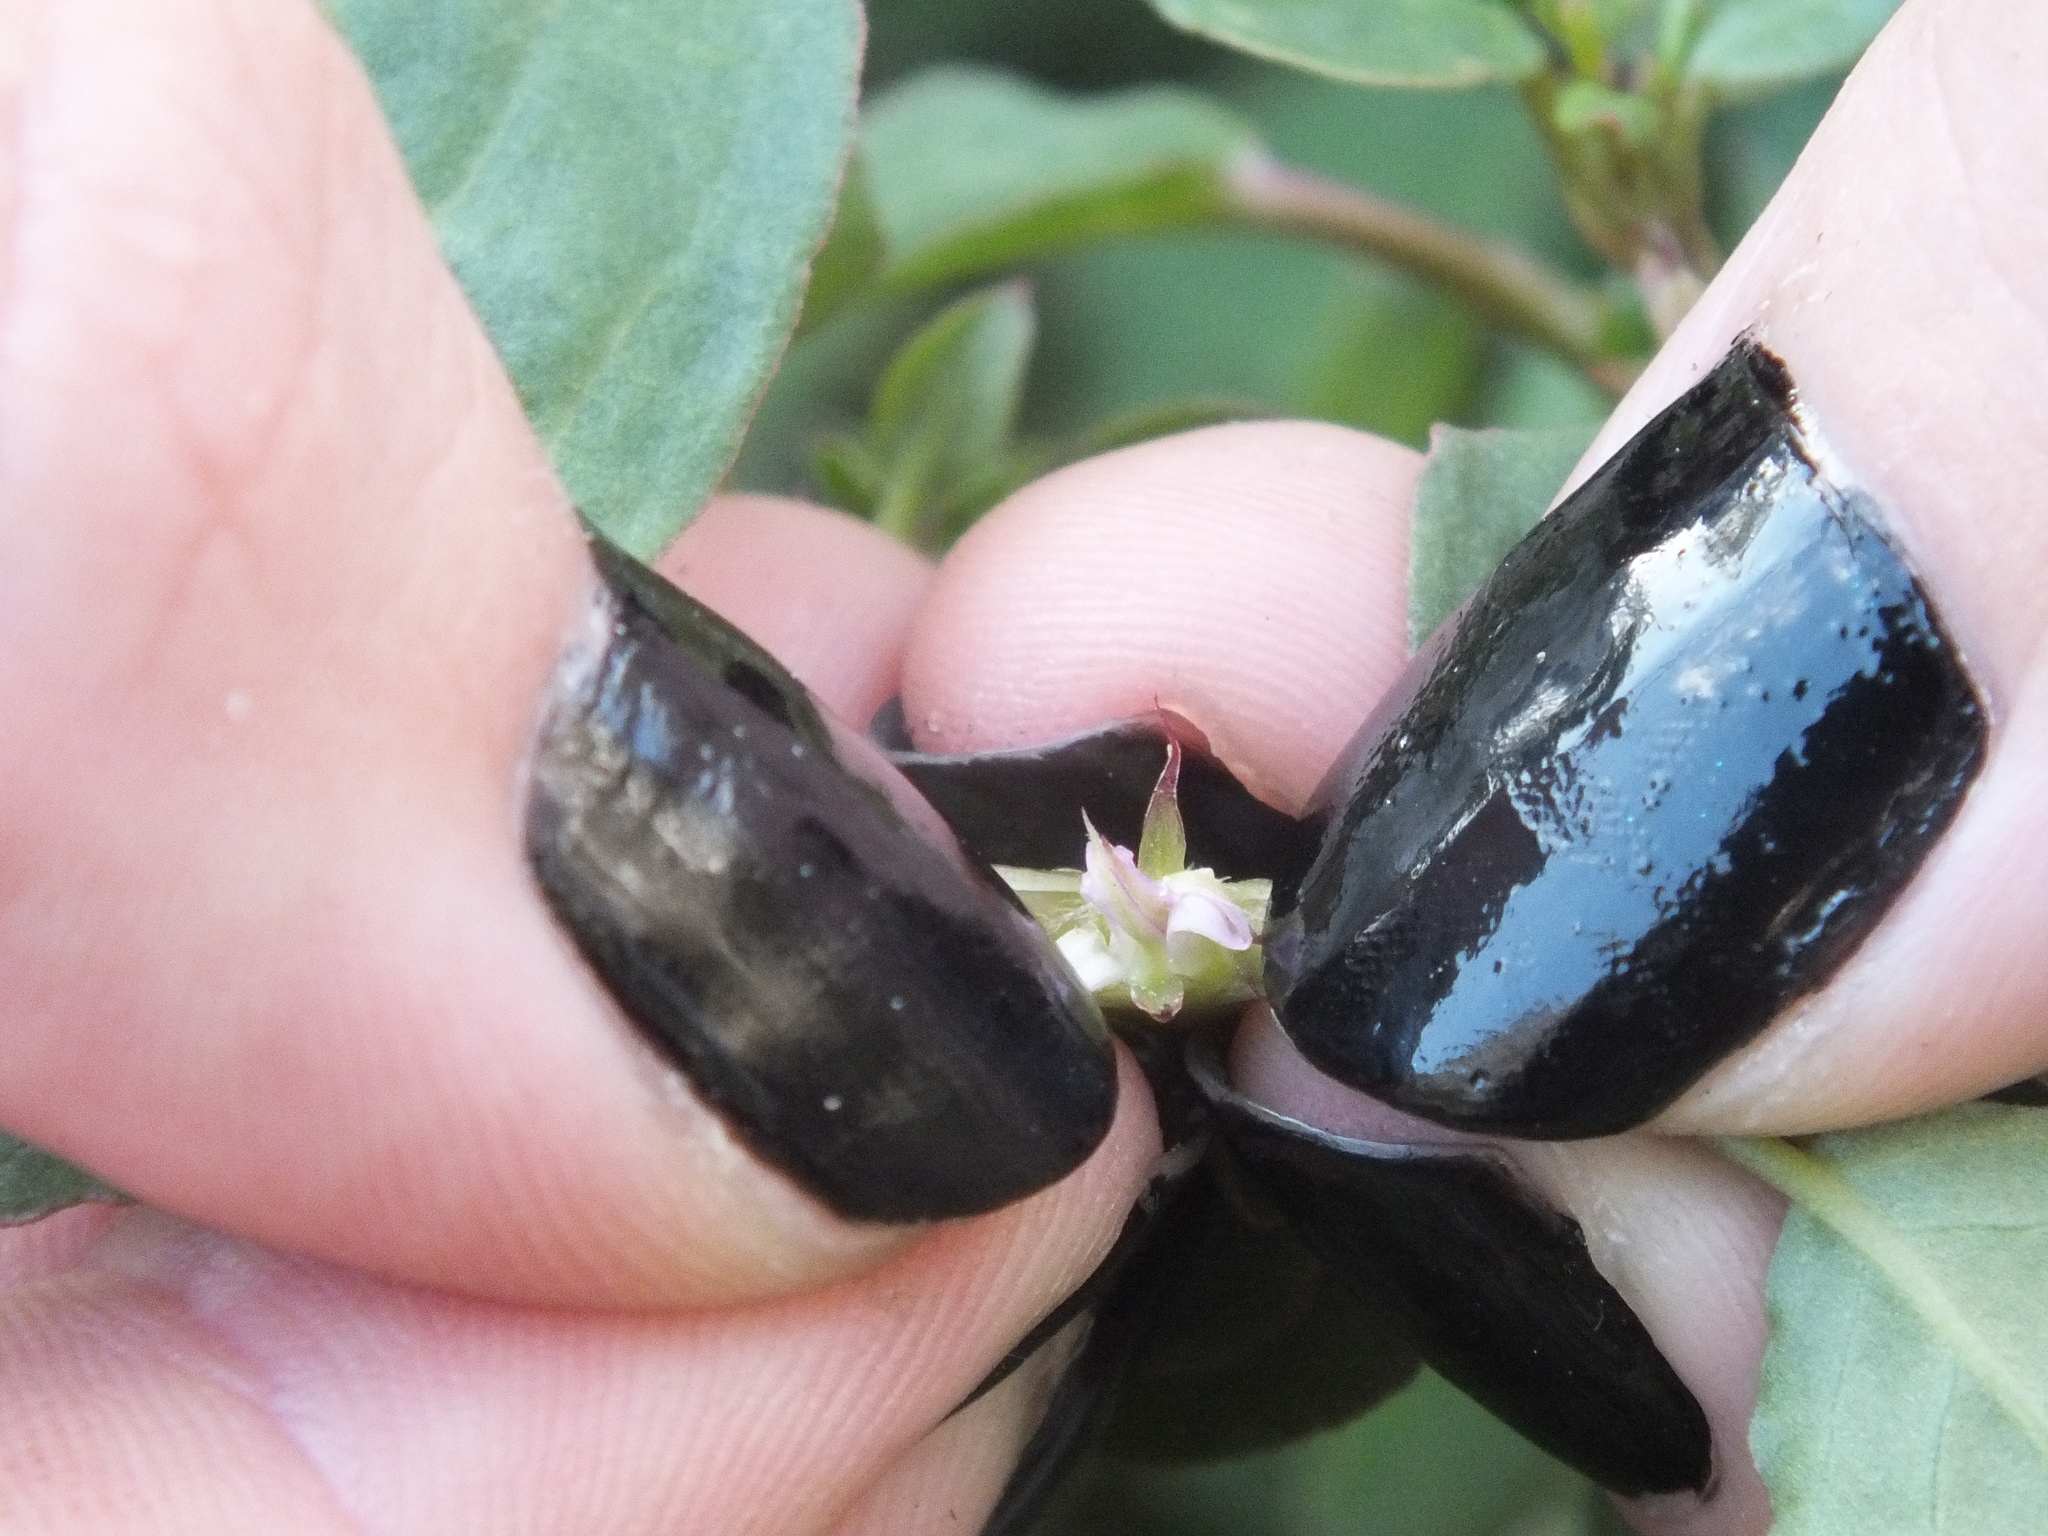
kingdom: Plantae
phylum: Tracheophyta
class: Magnoliopsida
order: Caryophyllales
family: Aizoaceae
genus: Trianthema
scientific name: Trianthema portulacastrum
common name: Desert horsepurslane
